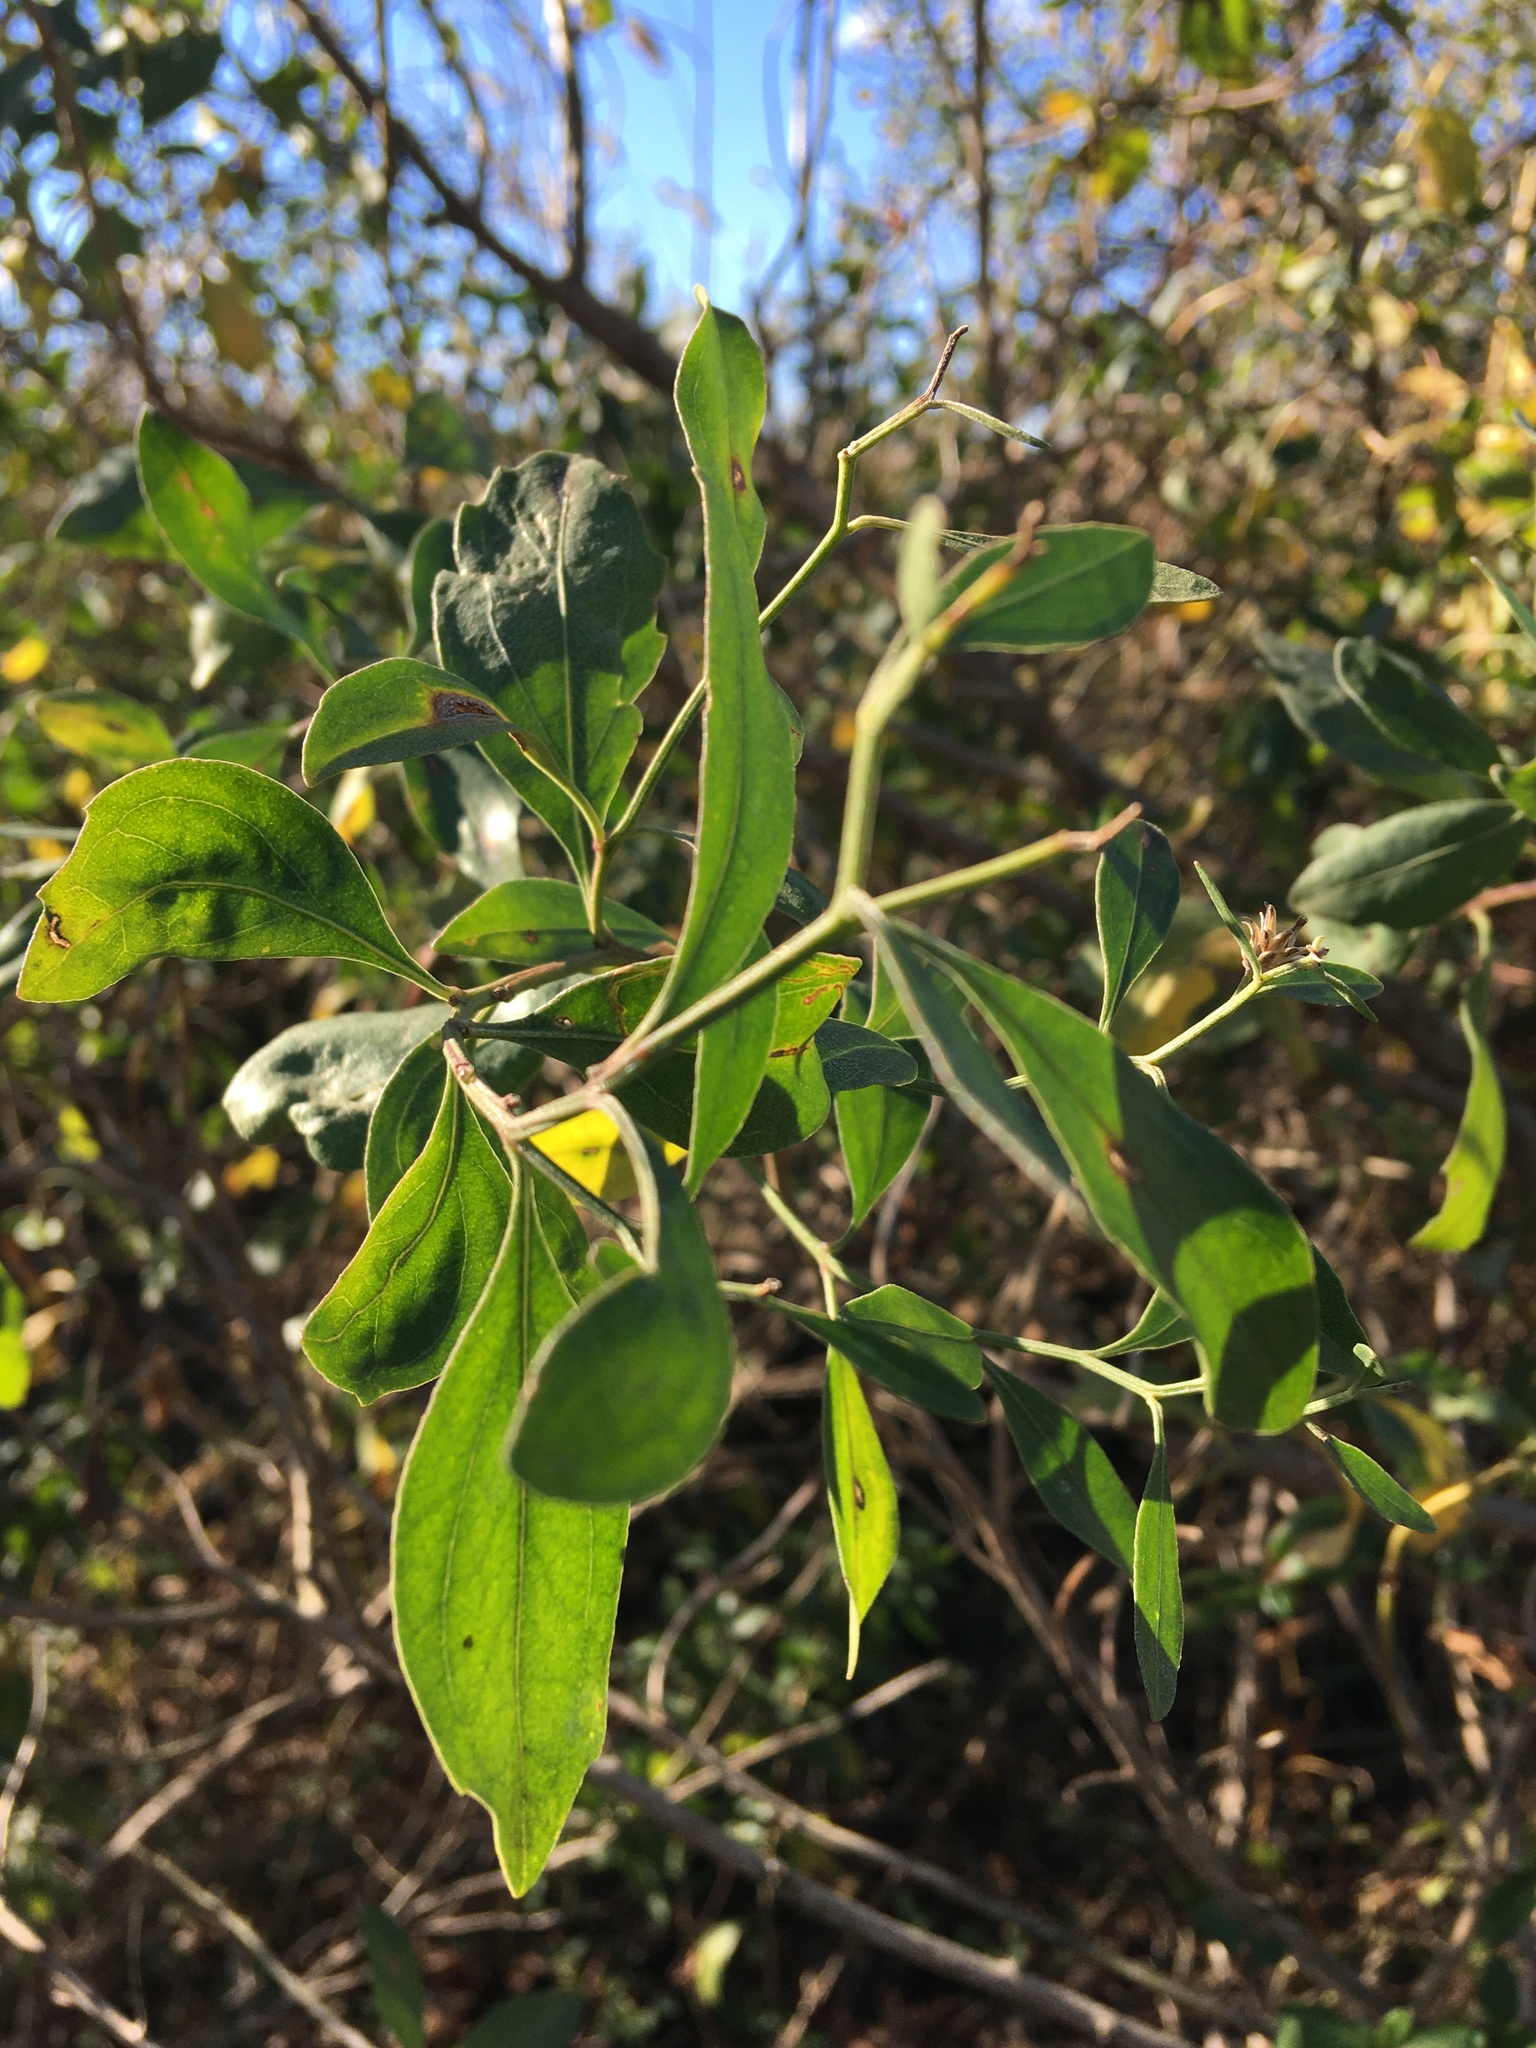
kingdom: Plantae
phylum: Tracheophyta
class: Magnoliopsida
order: Asterales
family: Asteraceae
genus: Baccharis
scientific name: Baccharis halimifolia
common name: Eastern baccharis
